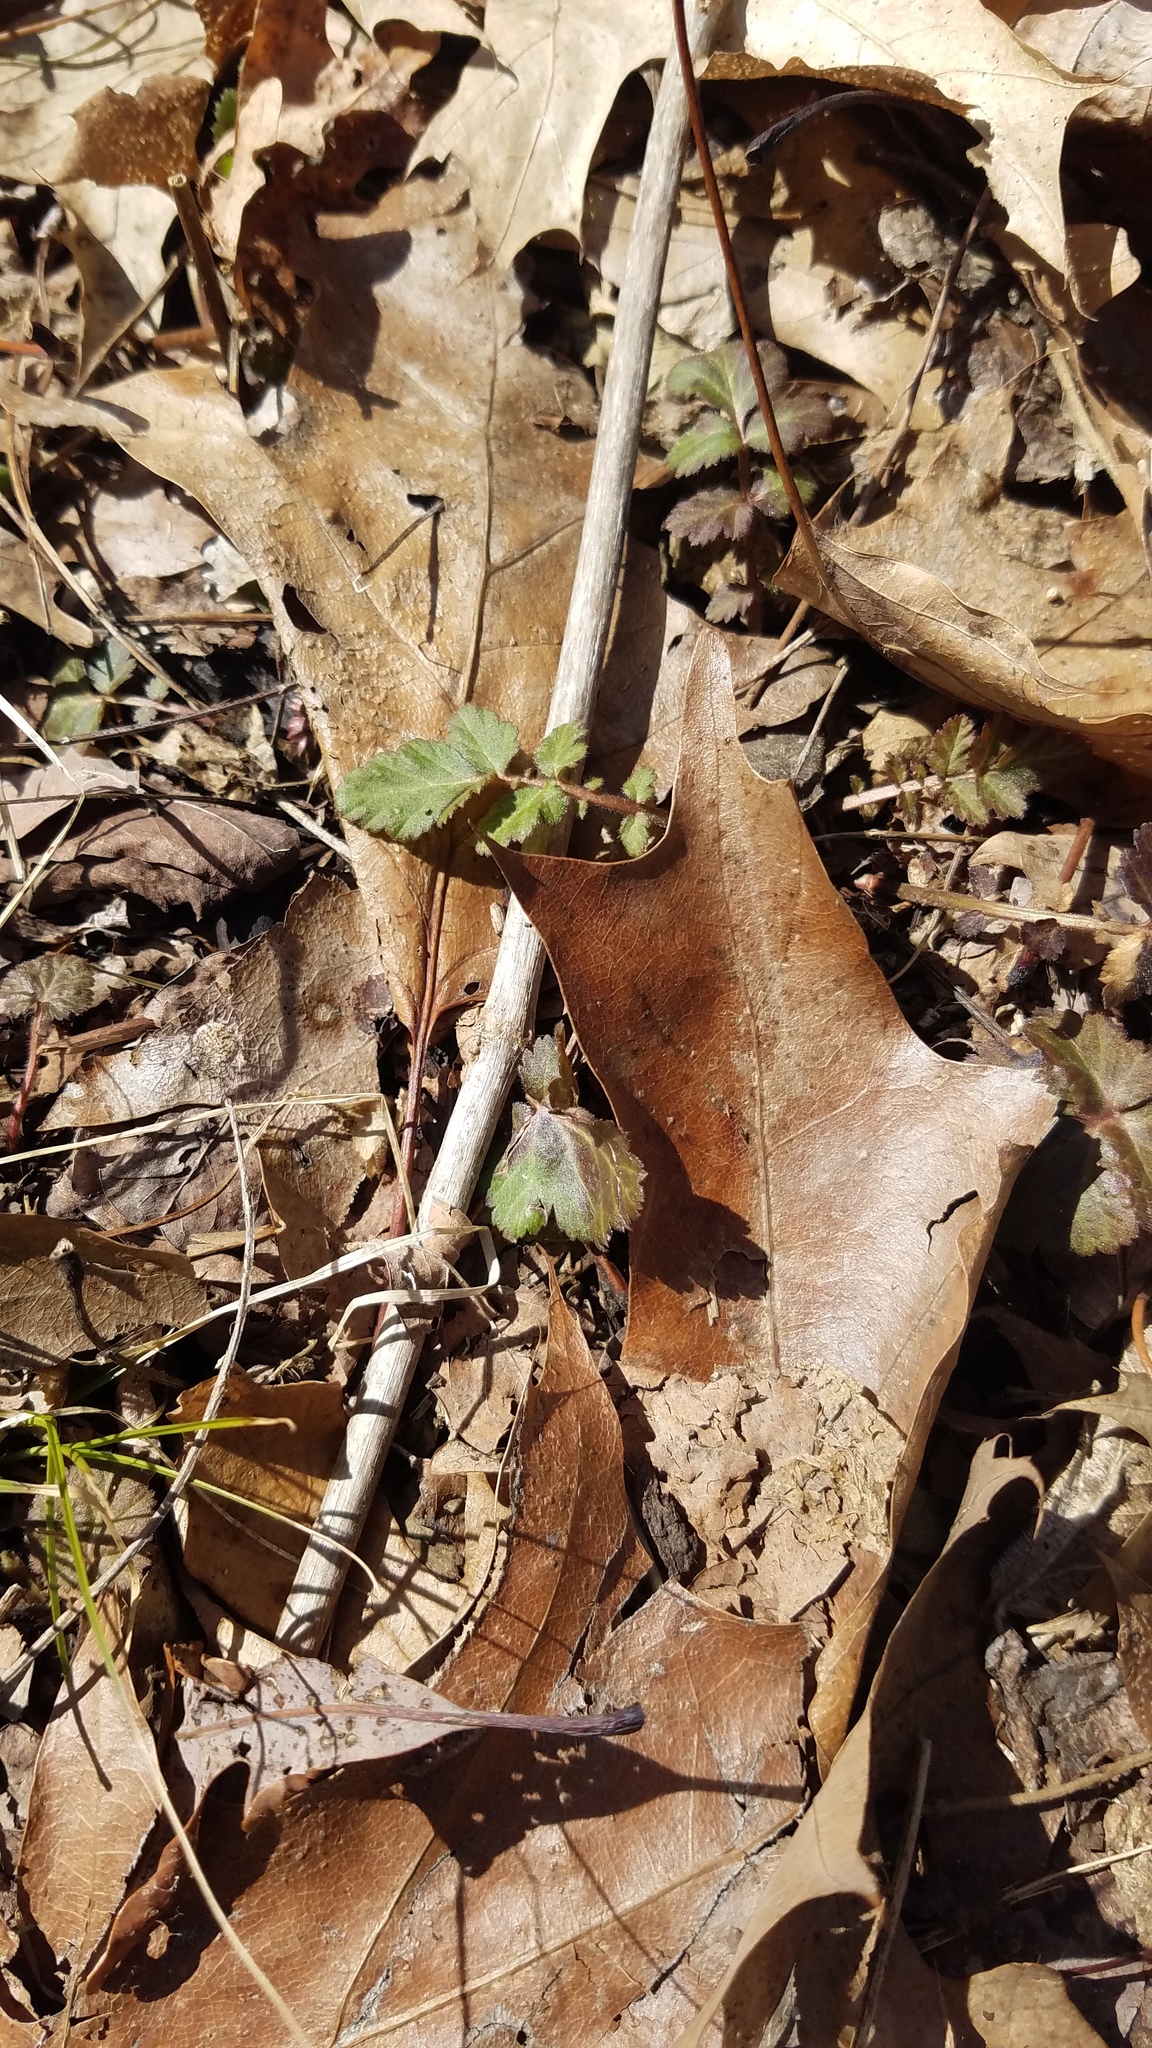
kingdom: Plantae
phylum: Tracheophyta
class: Magnoliopsida
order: Rosales
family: Rosaceae
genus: Geum
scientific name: Geum canadense
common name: White avens
